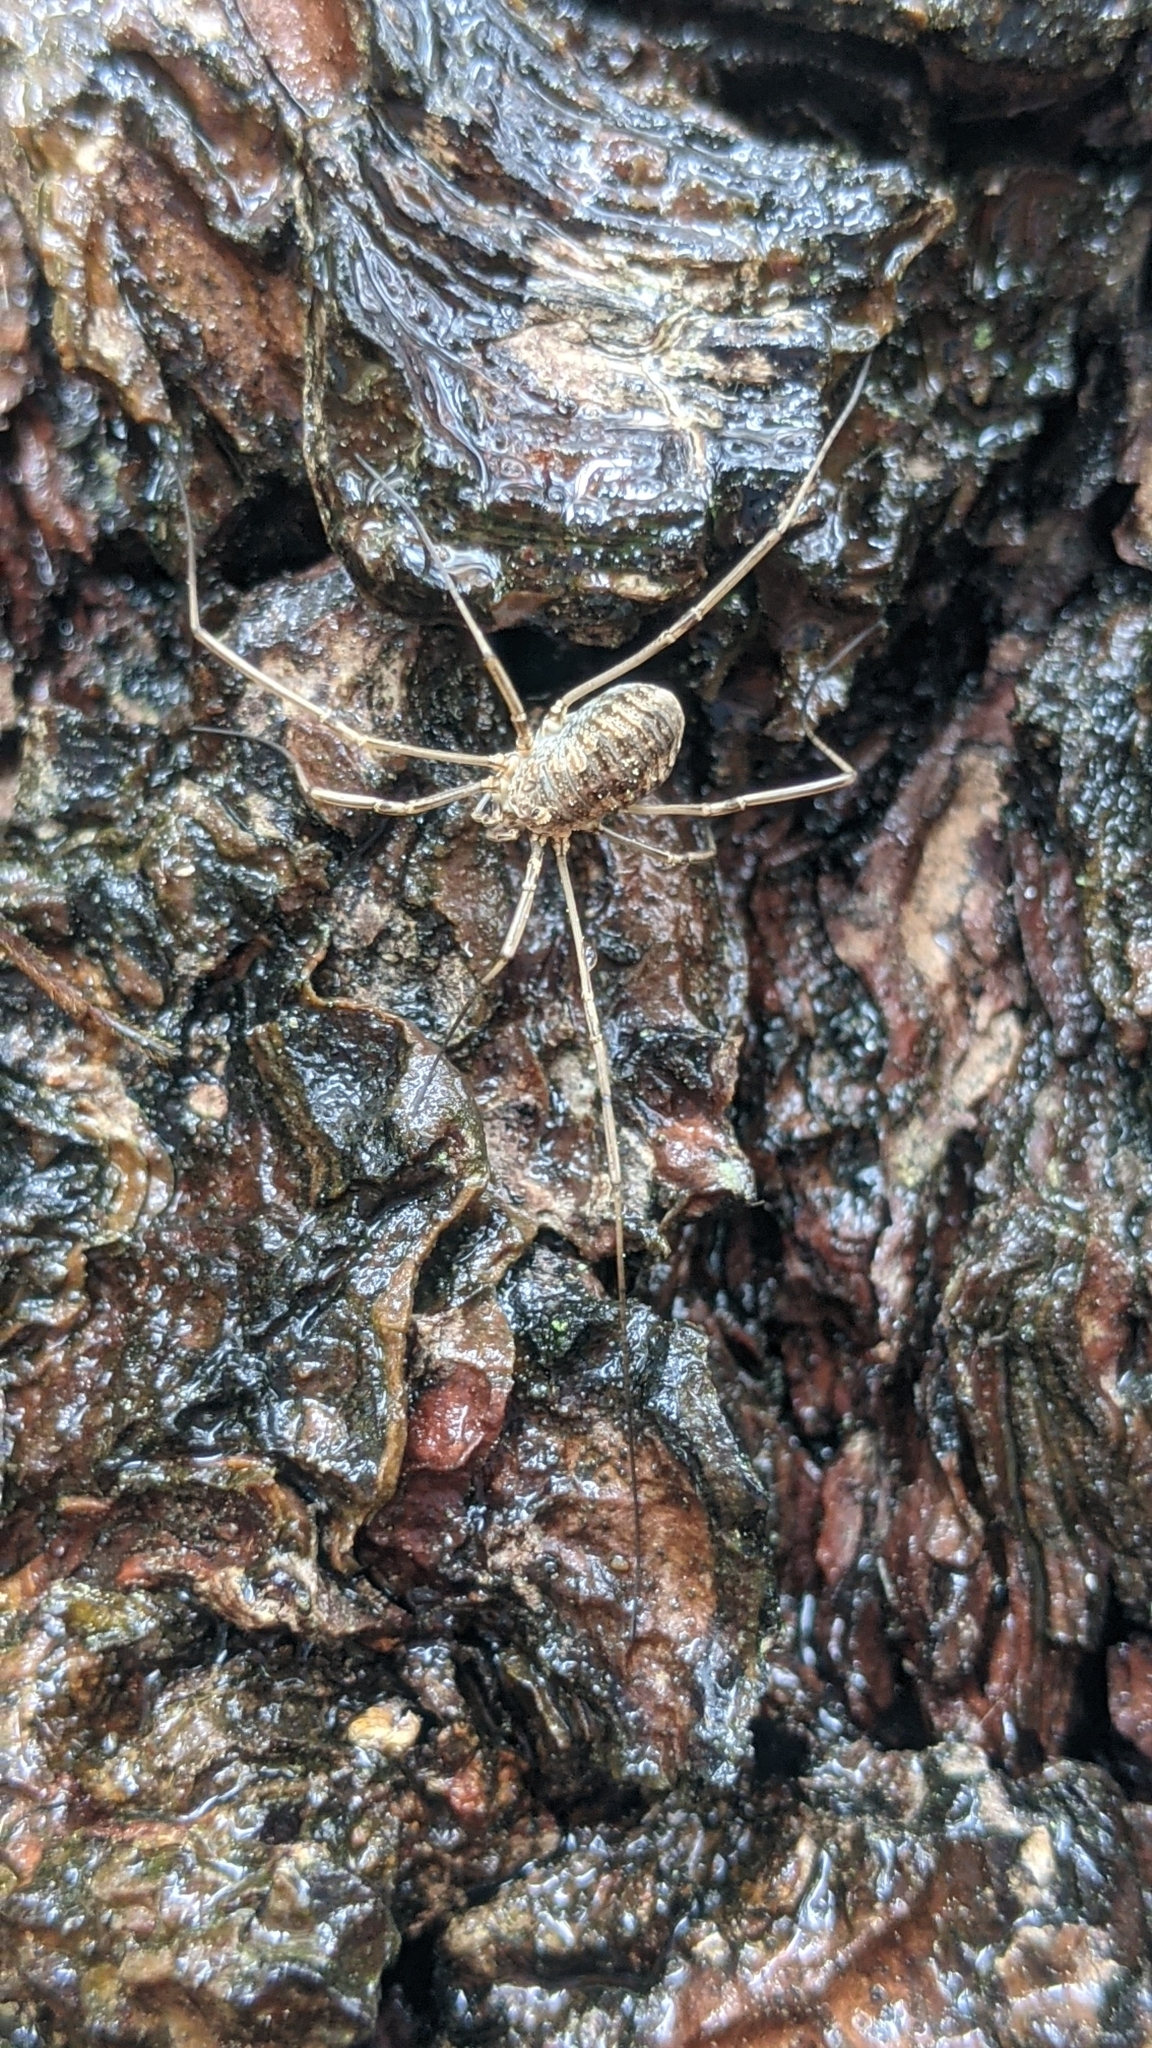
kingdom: Animalia
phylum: Arthropoda
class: Arachnida
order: Opiliones
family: Phalangiidae
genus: Phalangium
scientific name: Phalangium opilio
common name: Daddy longleg
